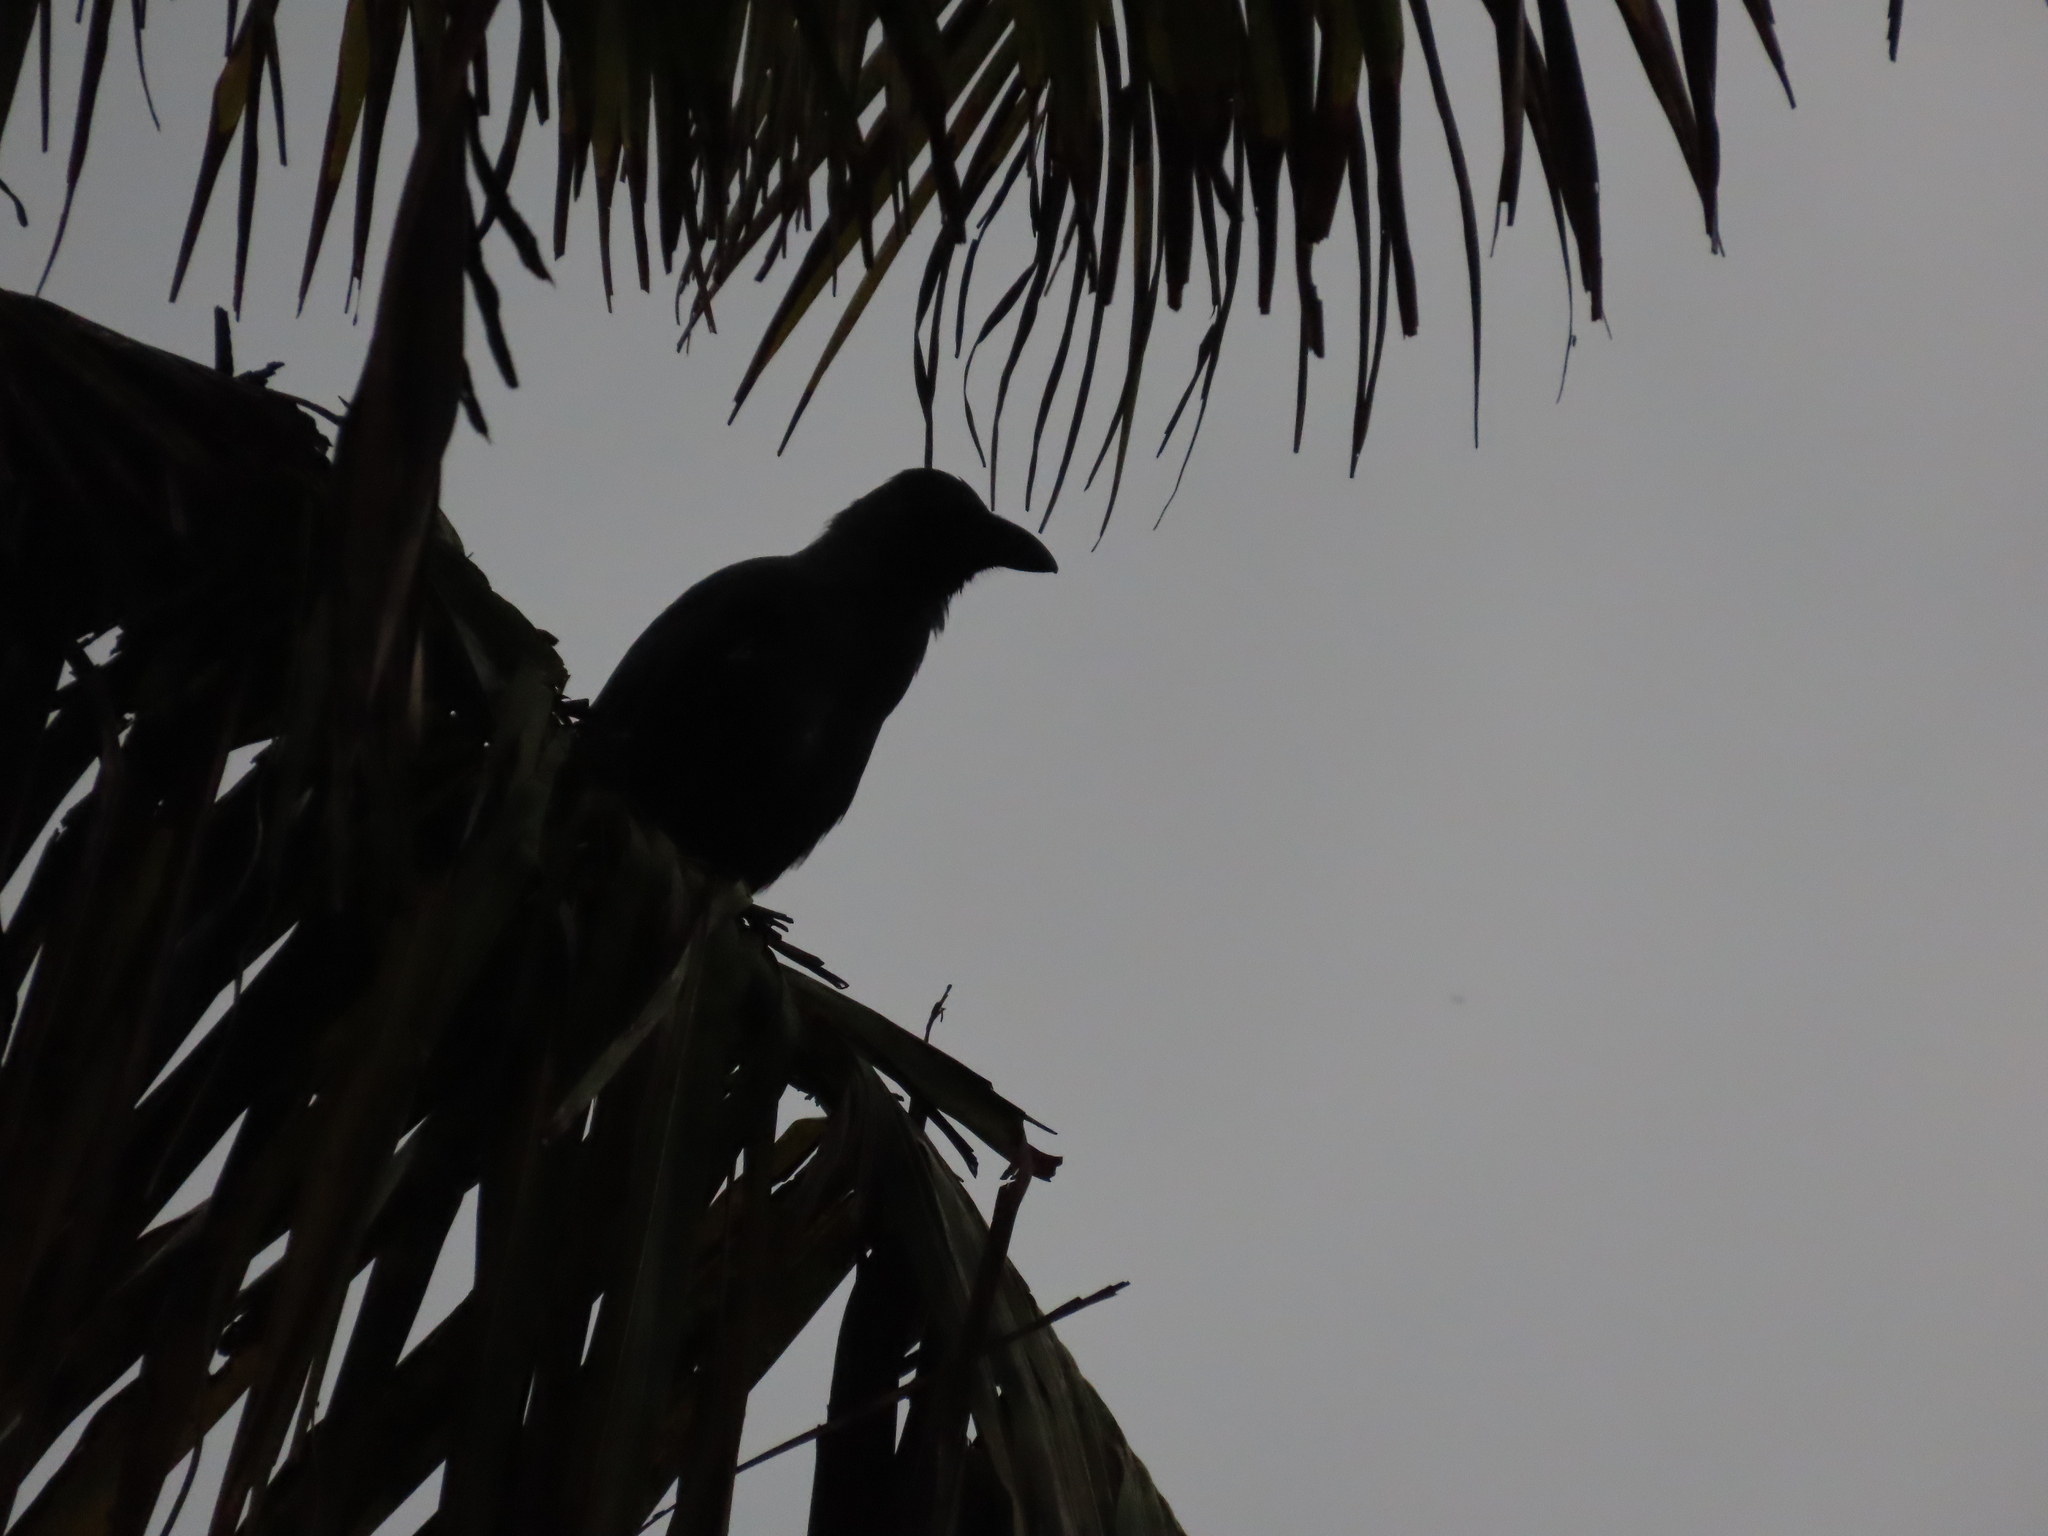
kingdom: Animalia
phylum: Chordata
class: Aves
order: Passeriformes
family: Corvidae
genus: Corvus
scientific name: Corvus splendens
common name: House crow
